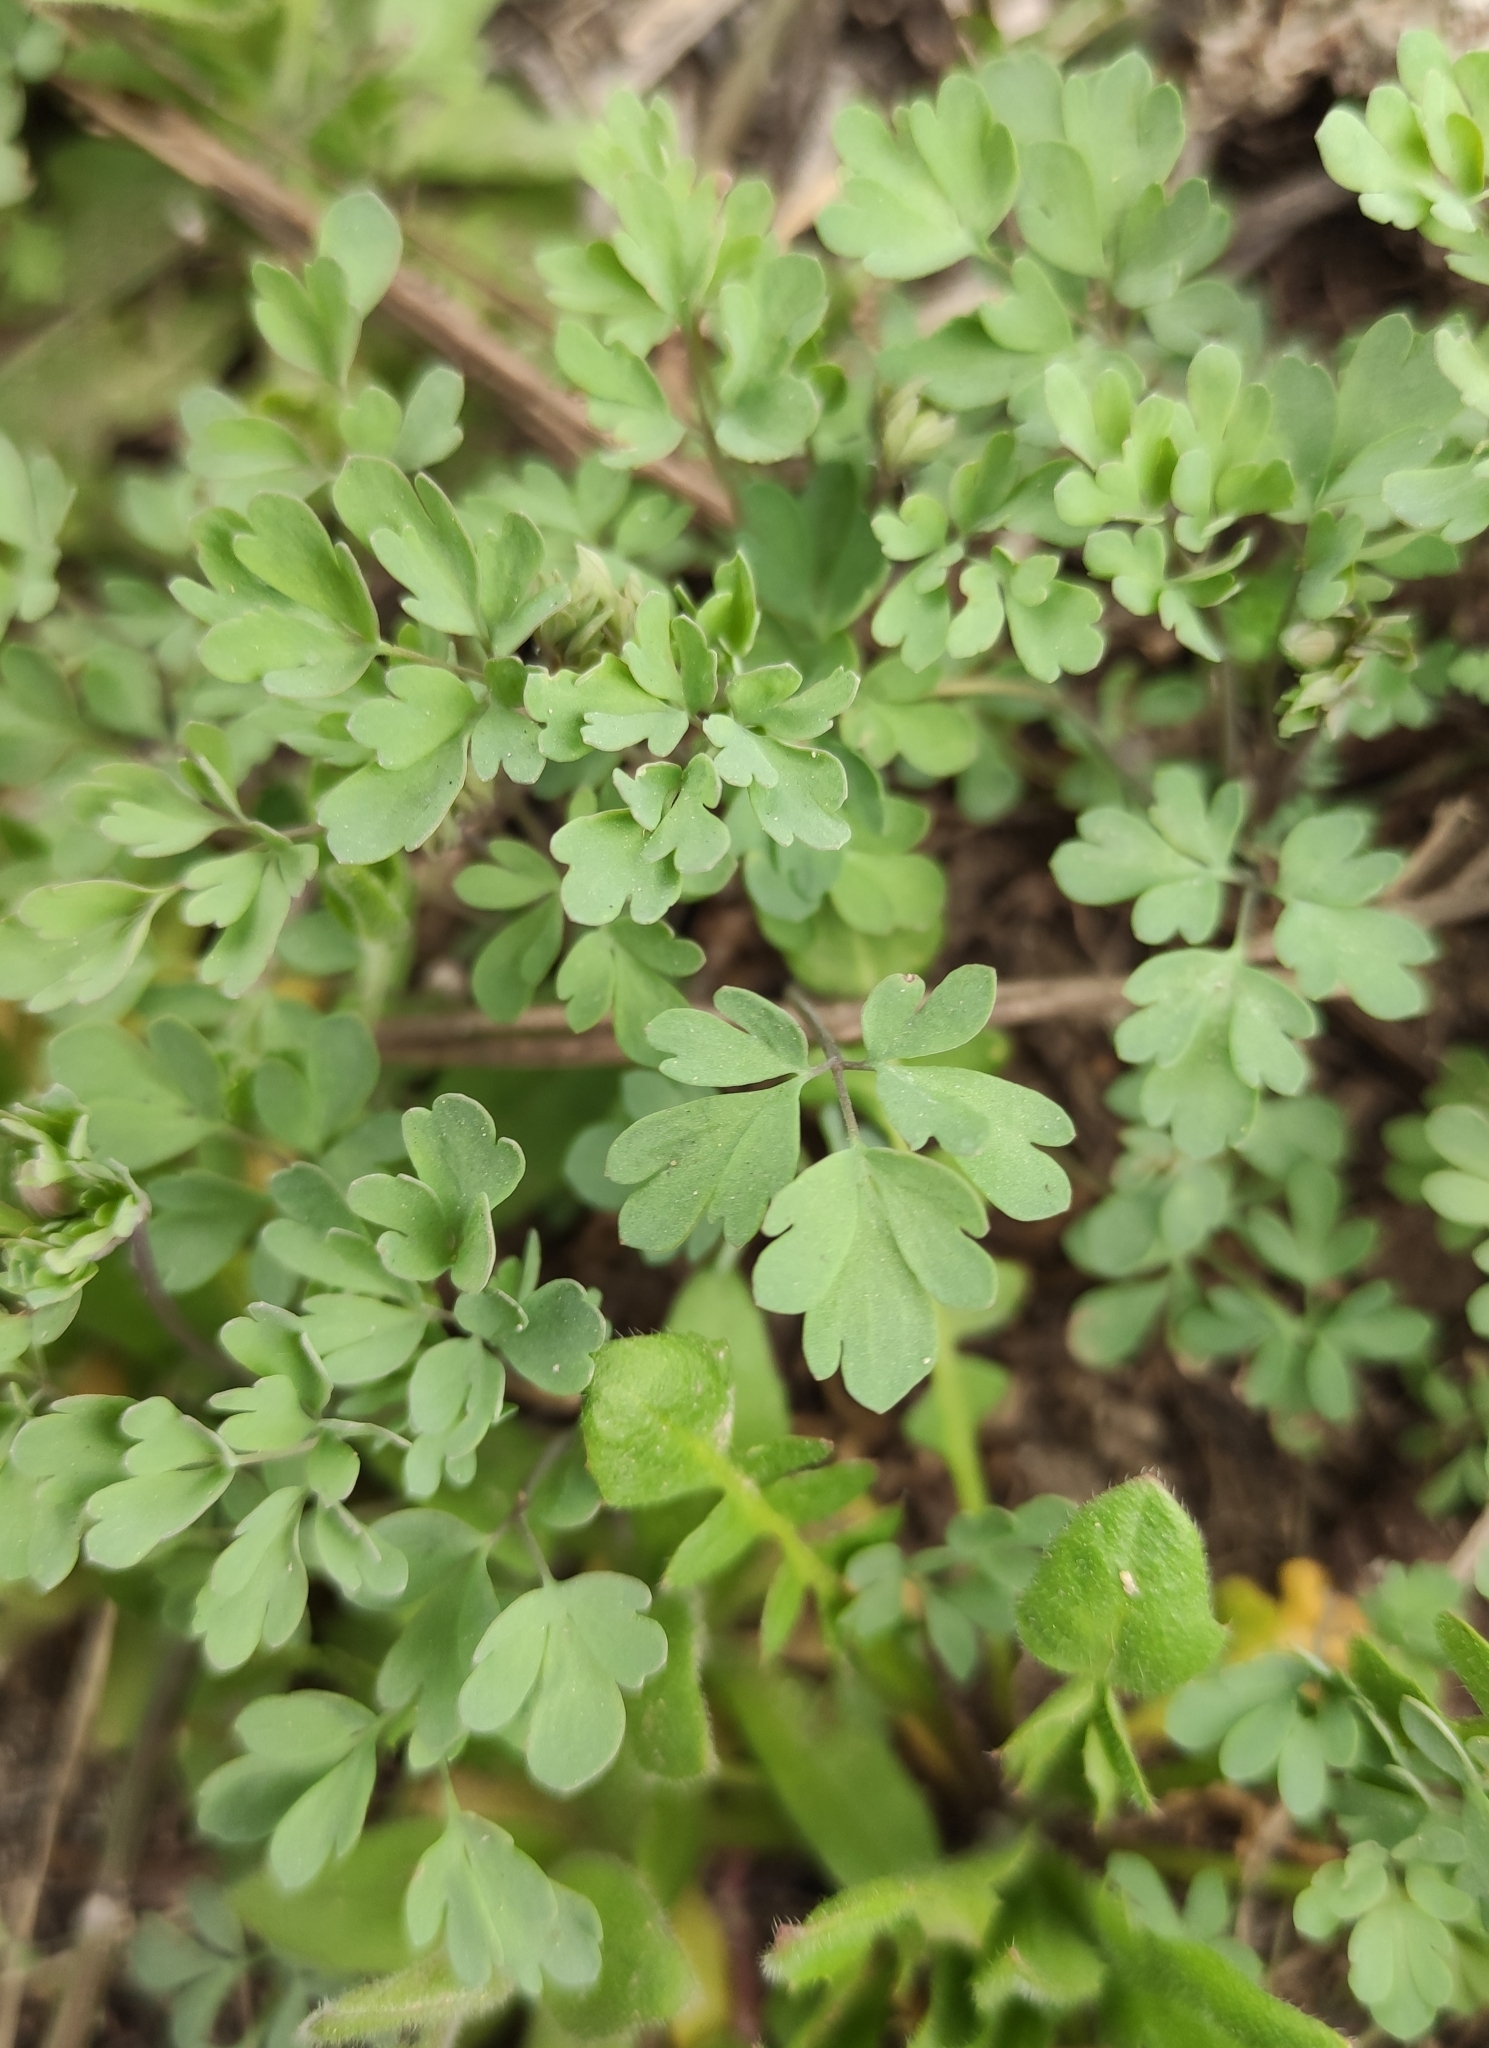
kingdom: Plantae
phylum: Tracheophyta
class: Magnoliopsida
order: Ranunculales
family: Ranunculaceae
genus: Leptopyrum
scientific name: Leptopyrum fumarioides
